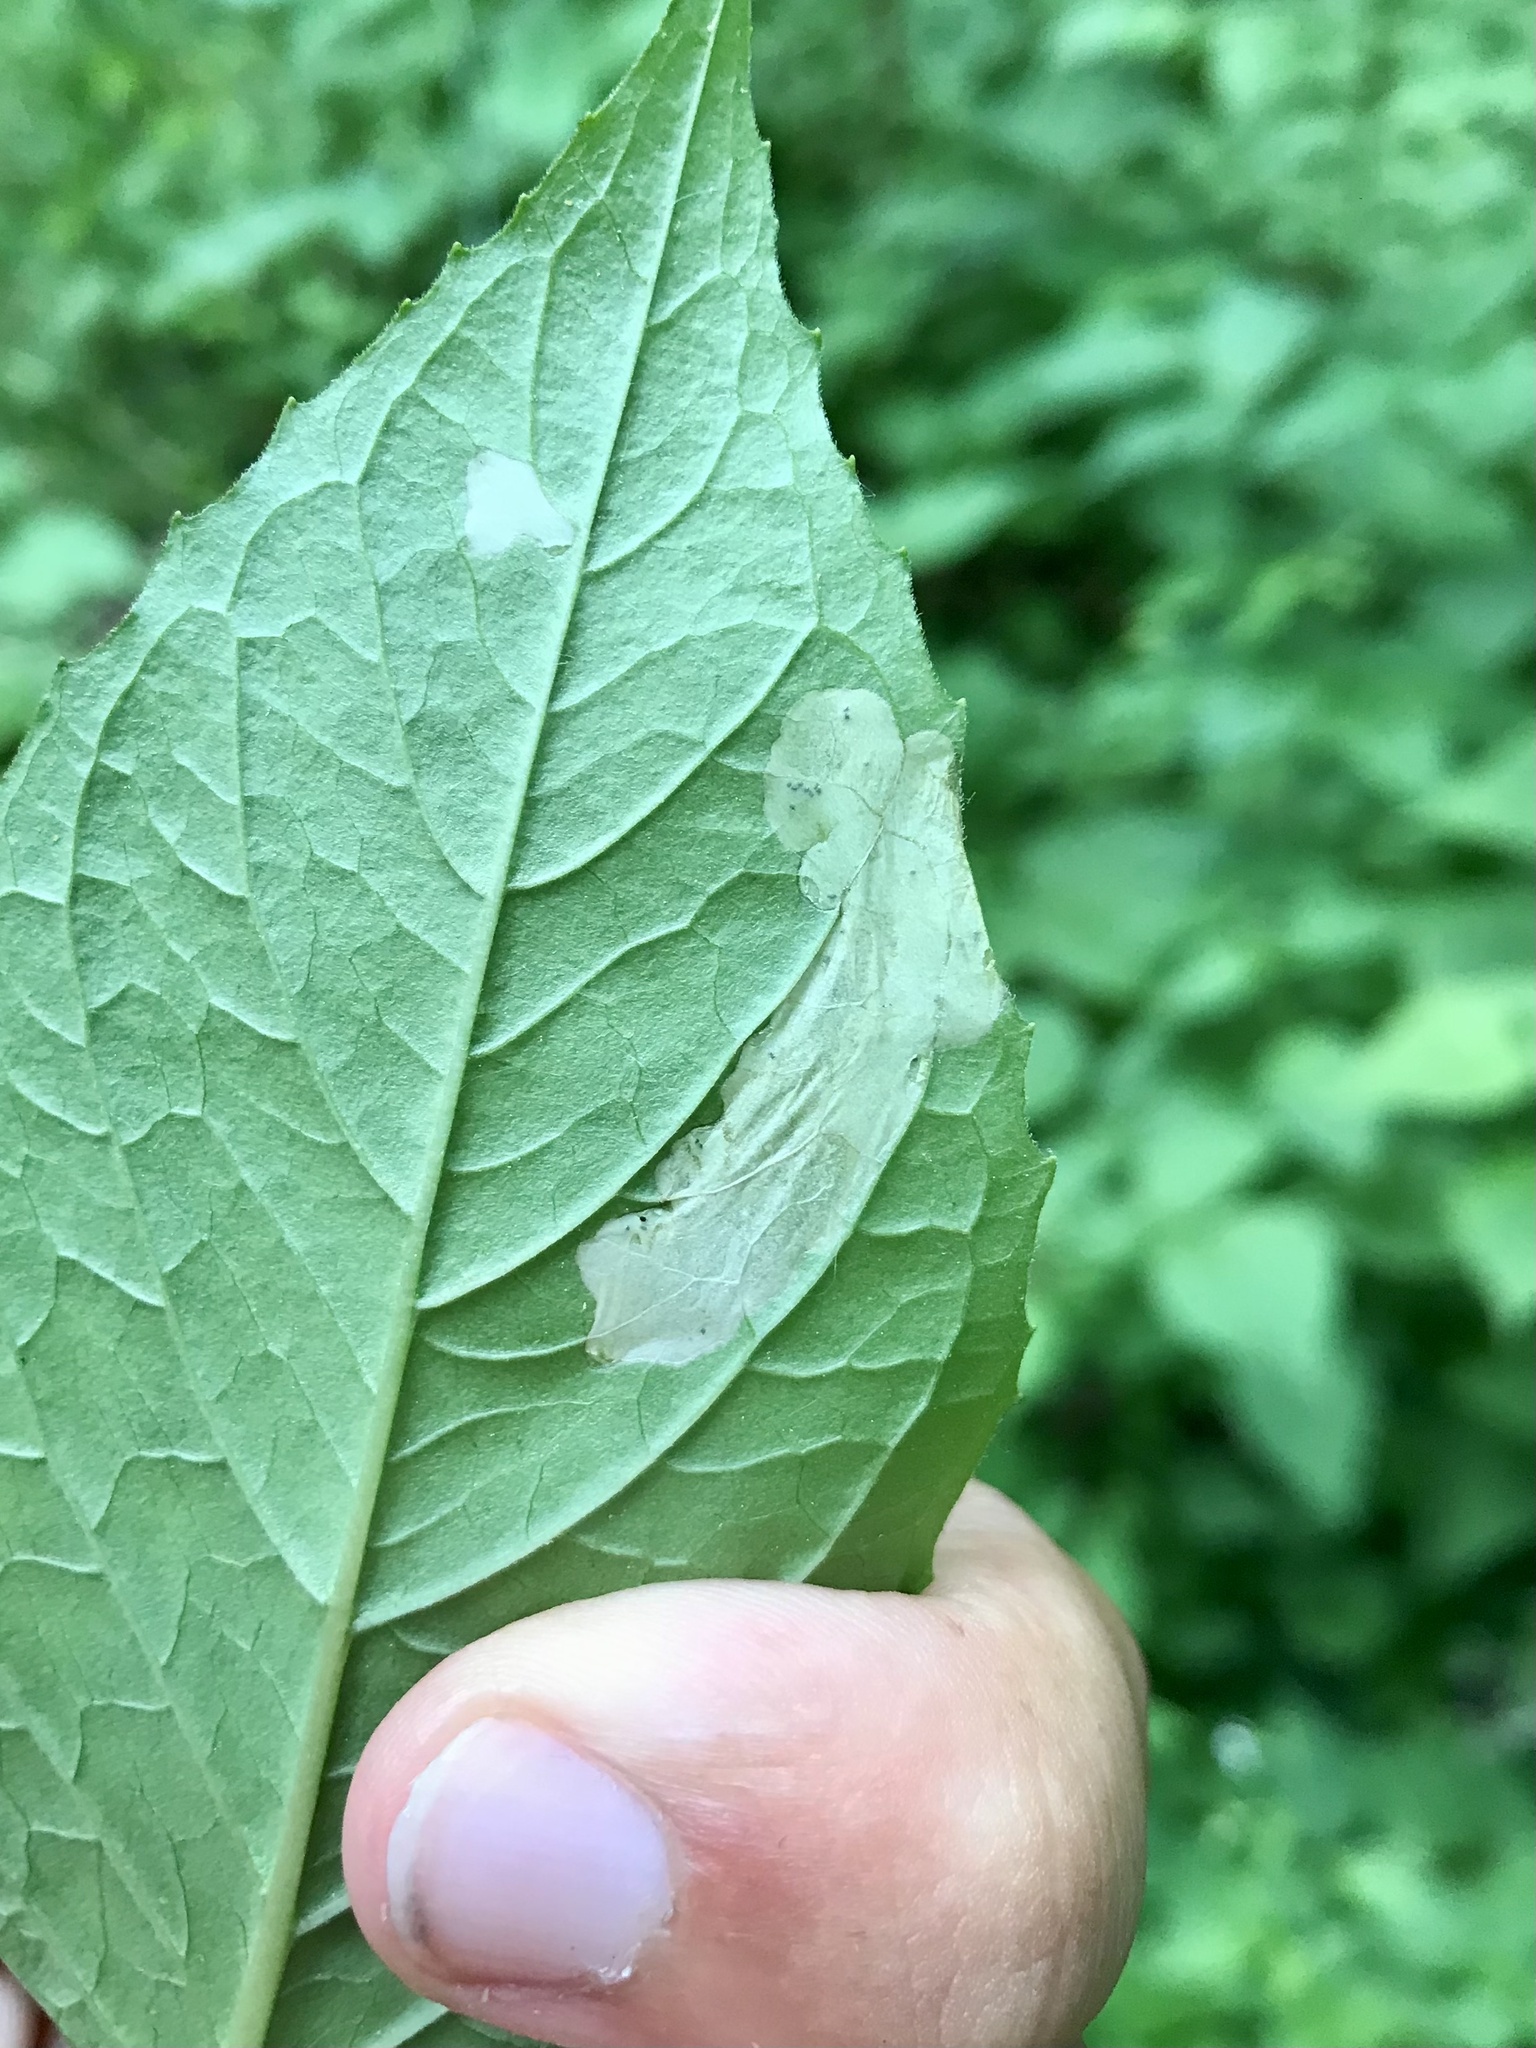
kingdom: Animalia
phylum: Arthropoda
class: Insecta
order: Lepidoptera
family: Momphidae
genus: Mompha
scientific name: Mompha terminella
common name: Enchanters cosmet
